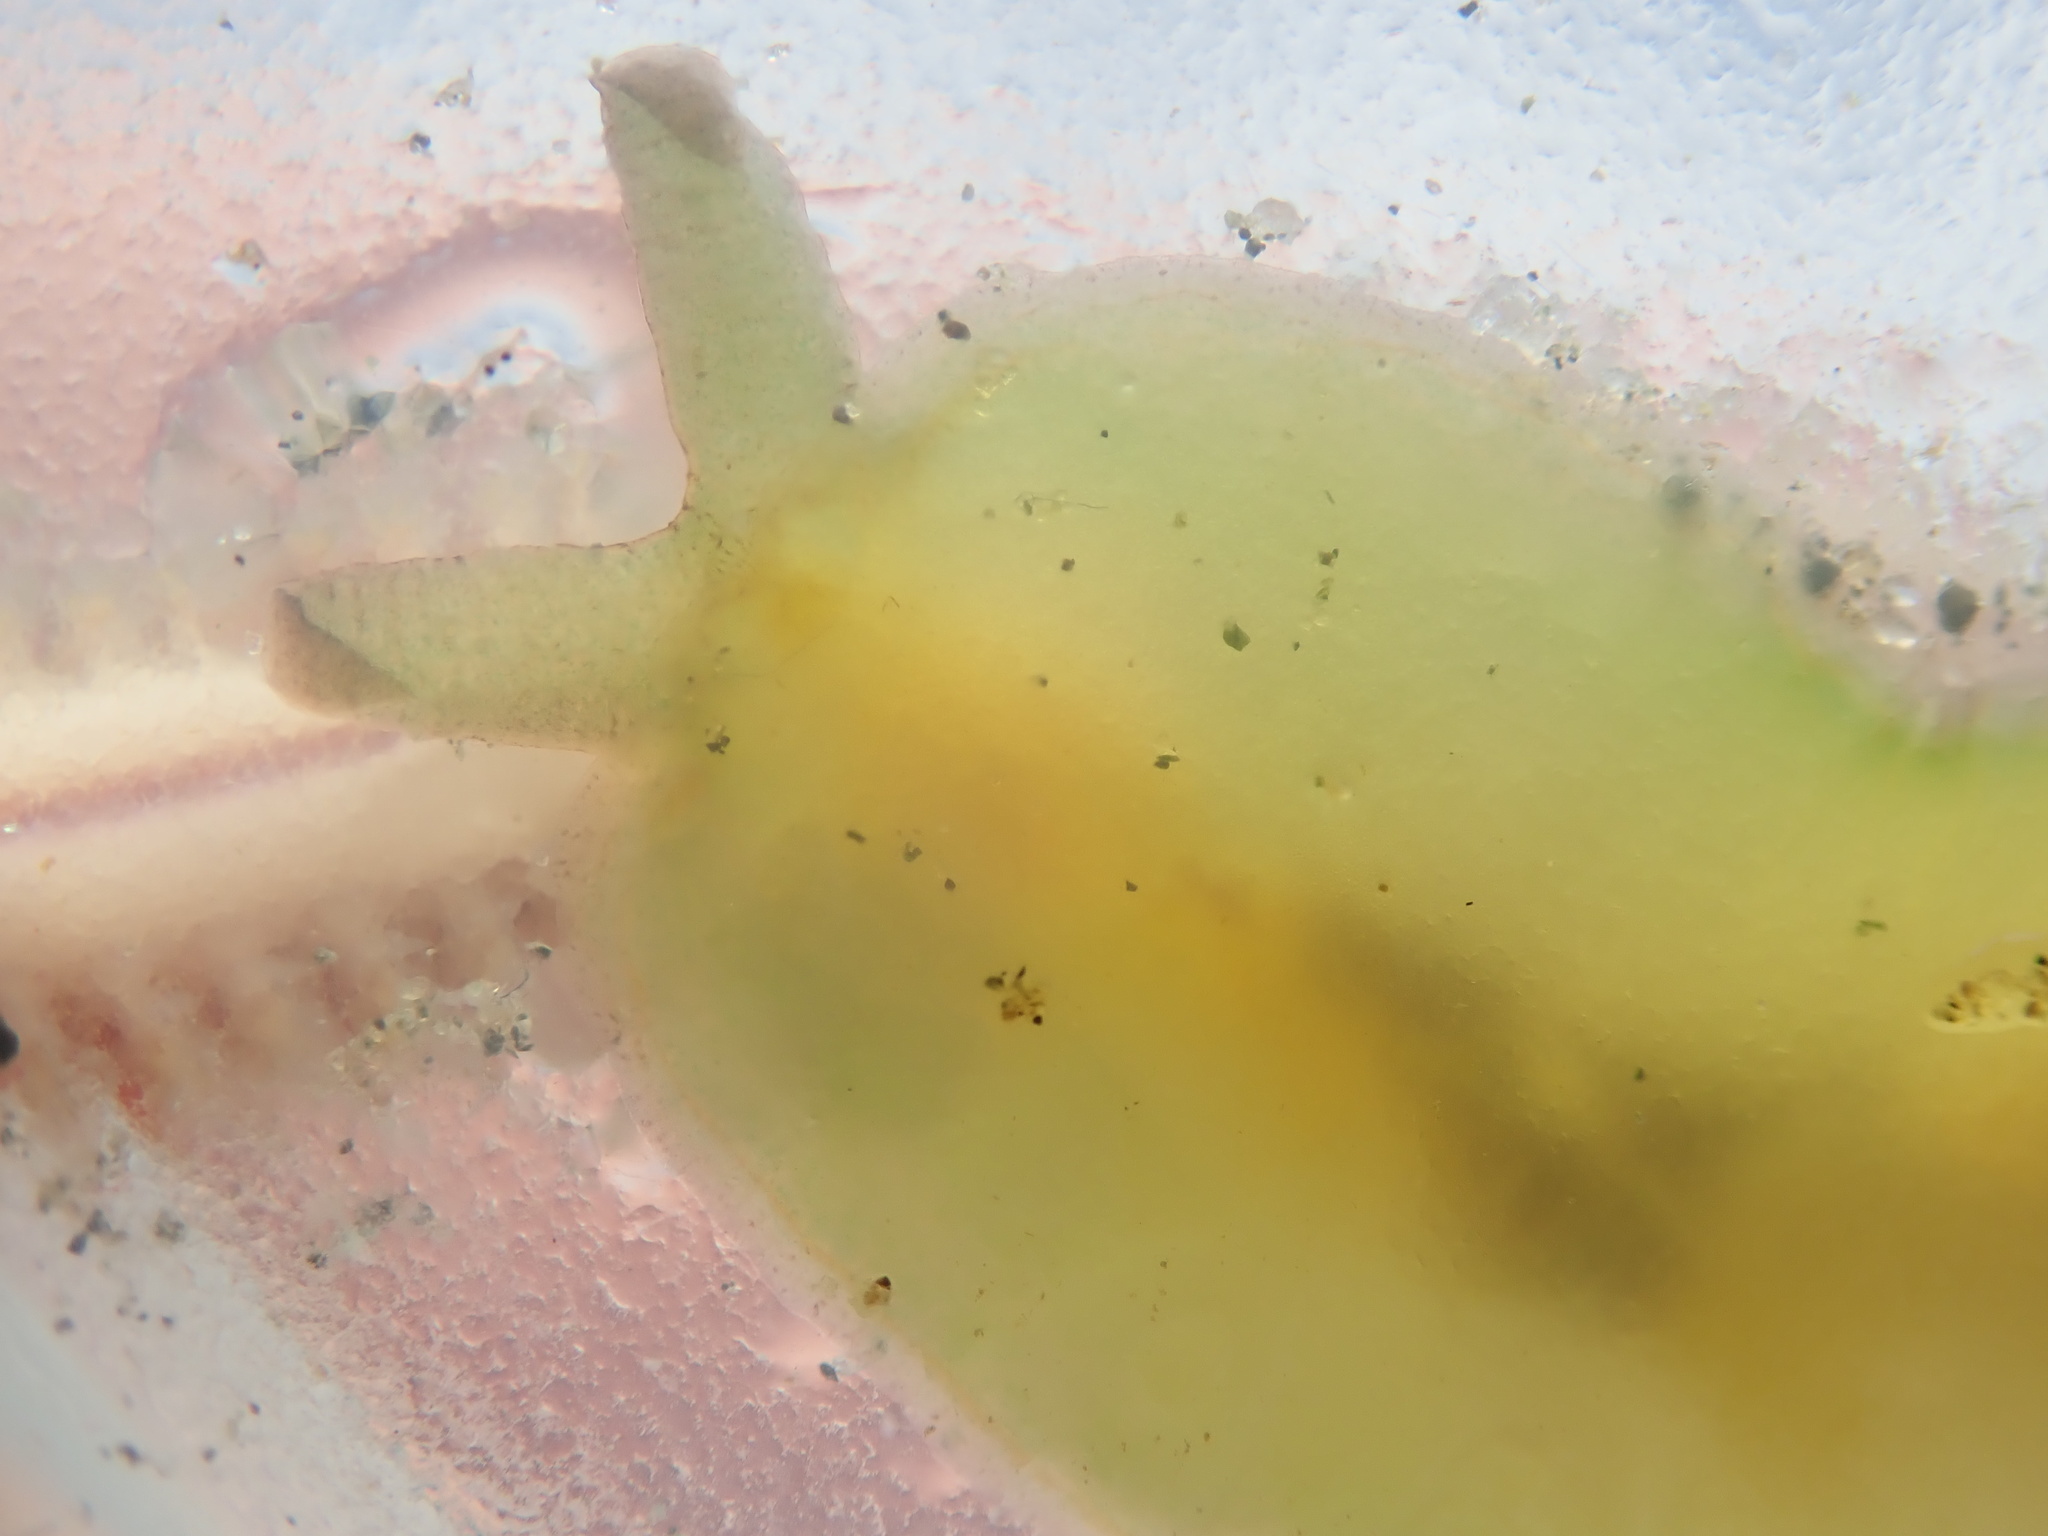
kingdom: Animalia
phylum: Mollusca
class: Gastropoda
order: Aplysiida
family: Aplysiidae
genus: Phyllaplysia
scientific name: Phyllaplysia taylori
